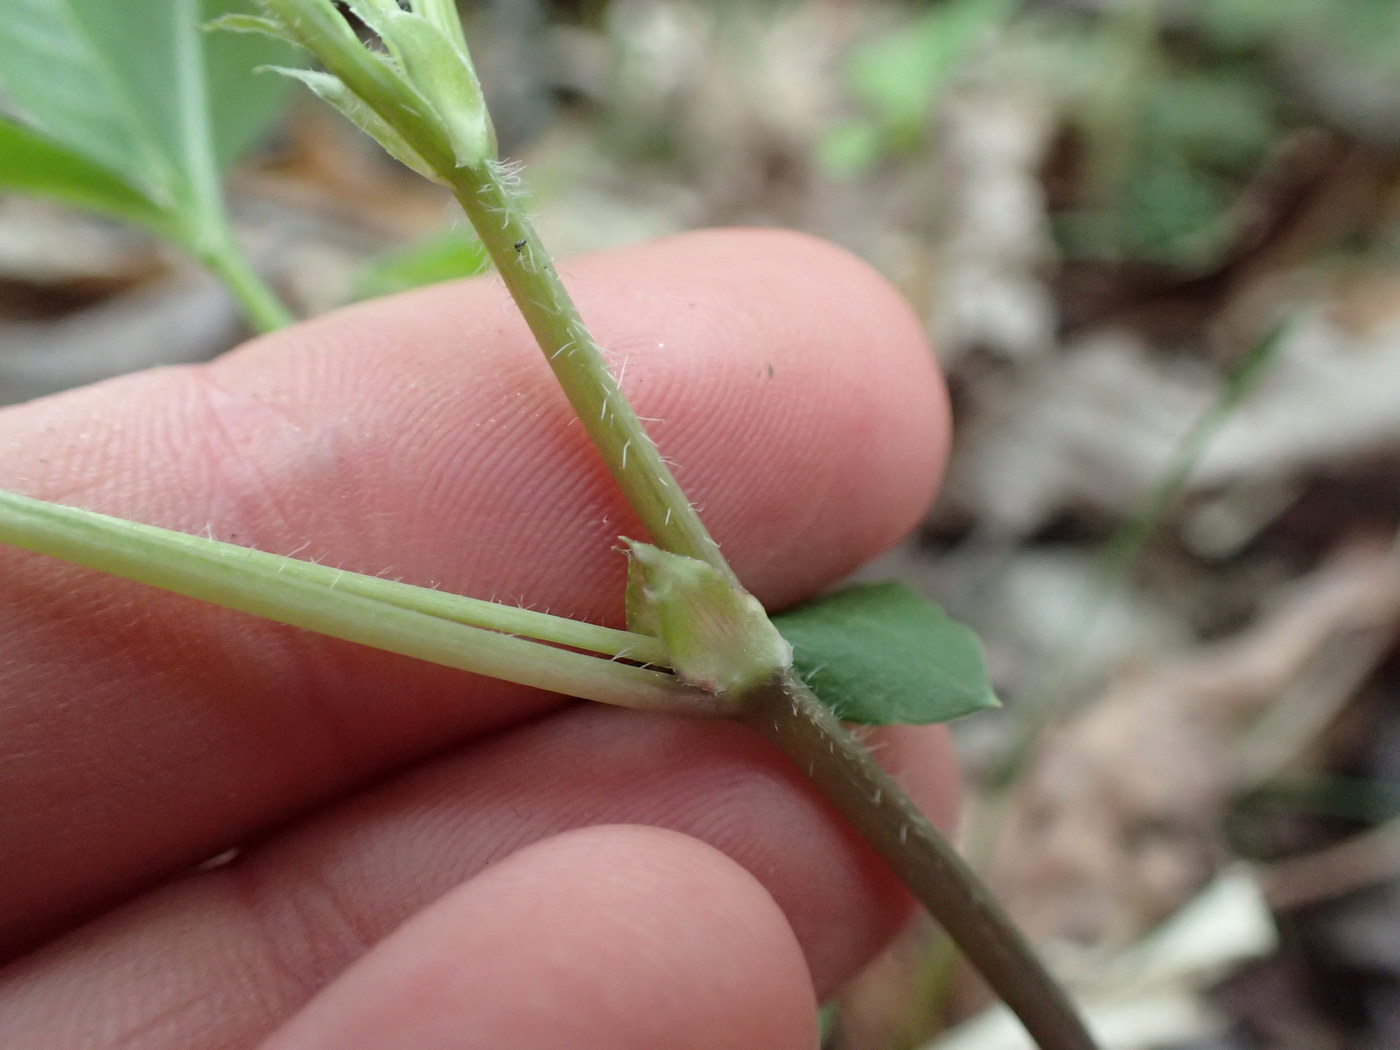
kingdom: Plantae
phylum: Tracheophyta
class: Magnoliopsida
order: Malpighiales
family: Violaceae
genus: Viola
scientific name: Viola eriocarpa
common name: Smooth yellow violet
